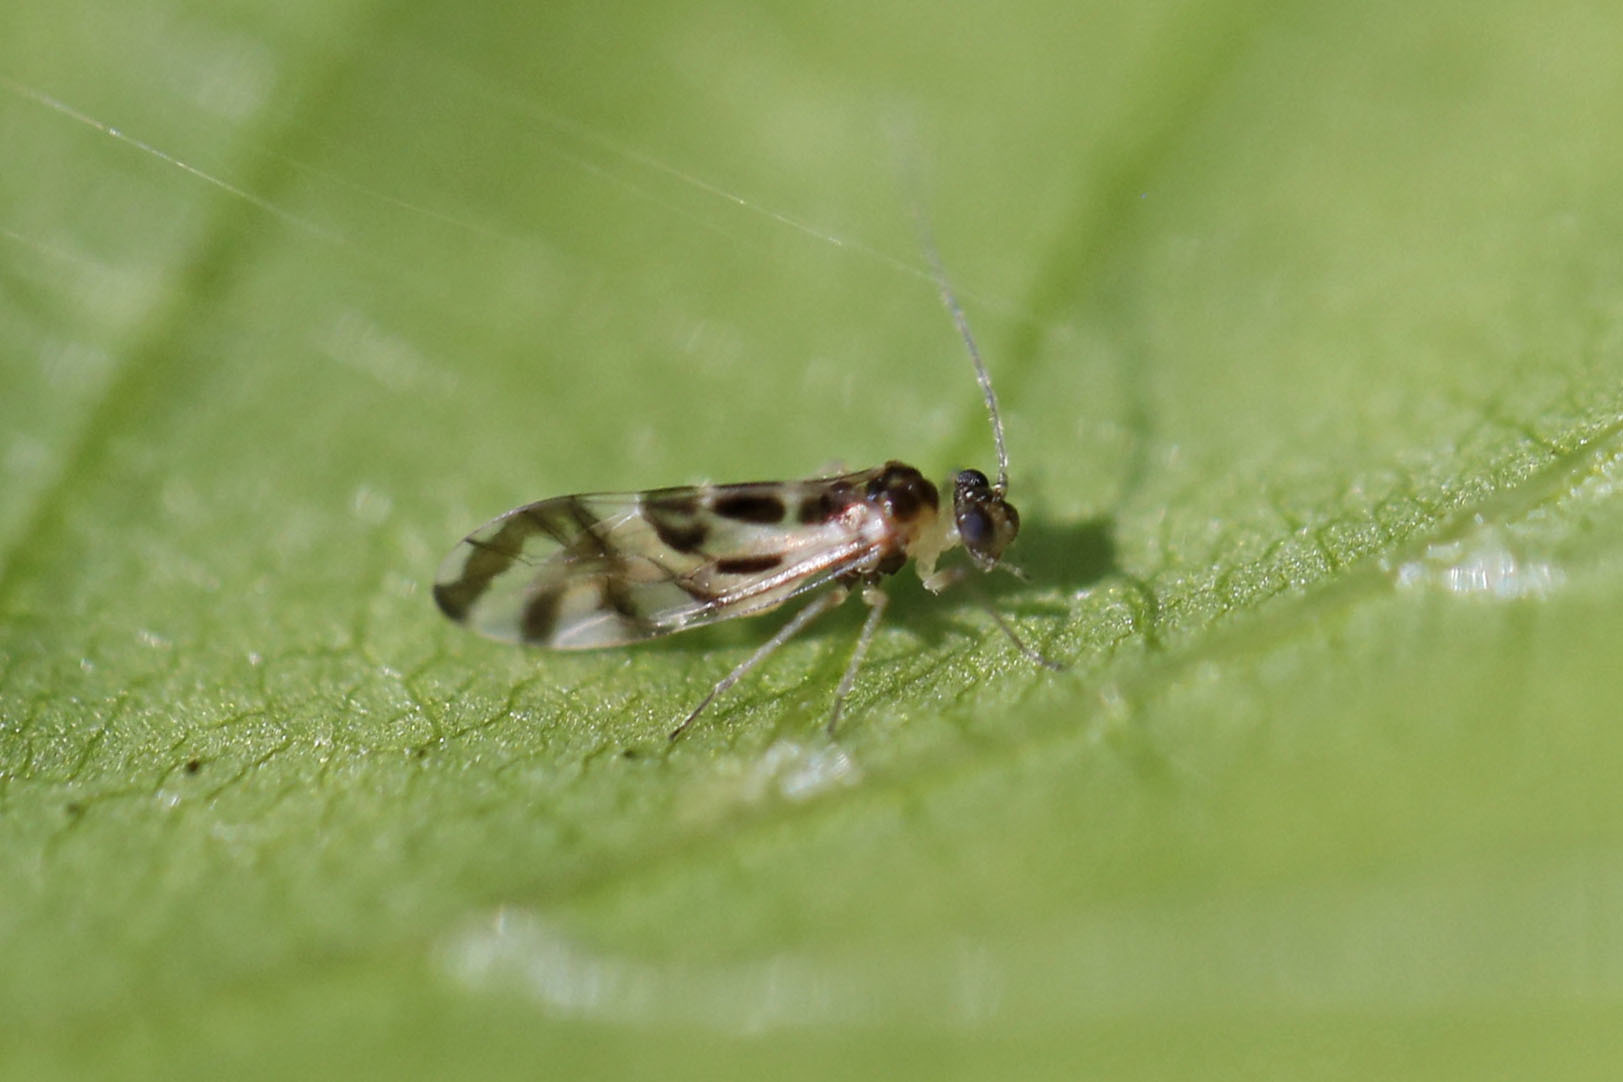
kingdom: Animalia
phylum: Arthropoda
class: Insecta
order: Psocodea
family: Stenopsocidae
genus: Graphopsocus
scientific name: Graphopsocus cruciatus
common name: Lizard bark louse
